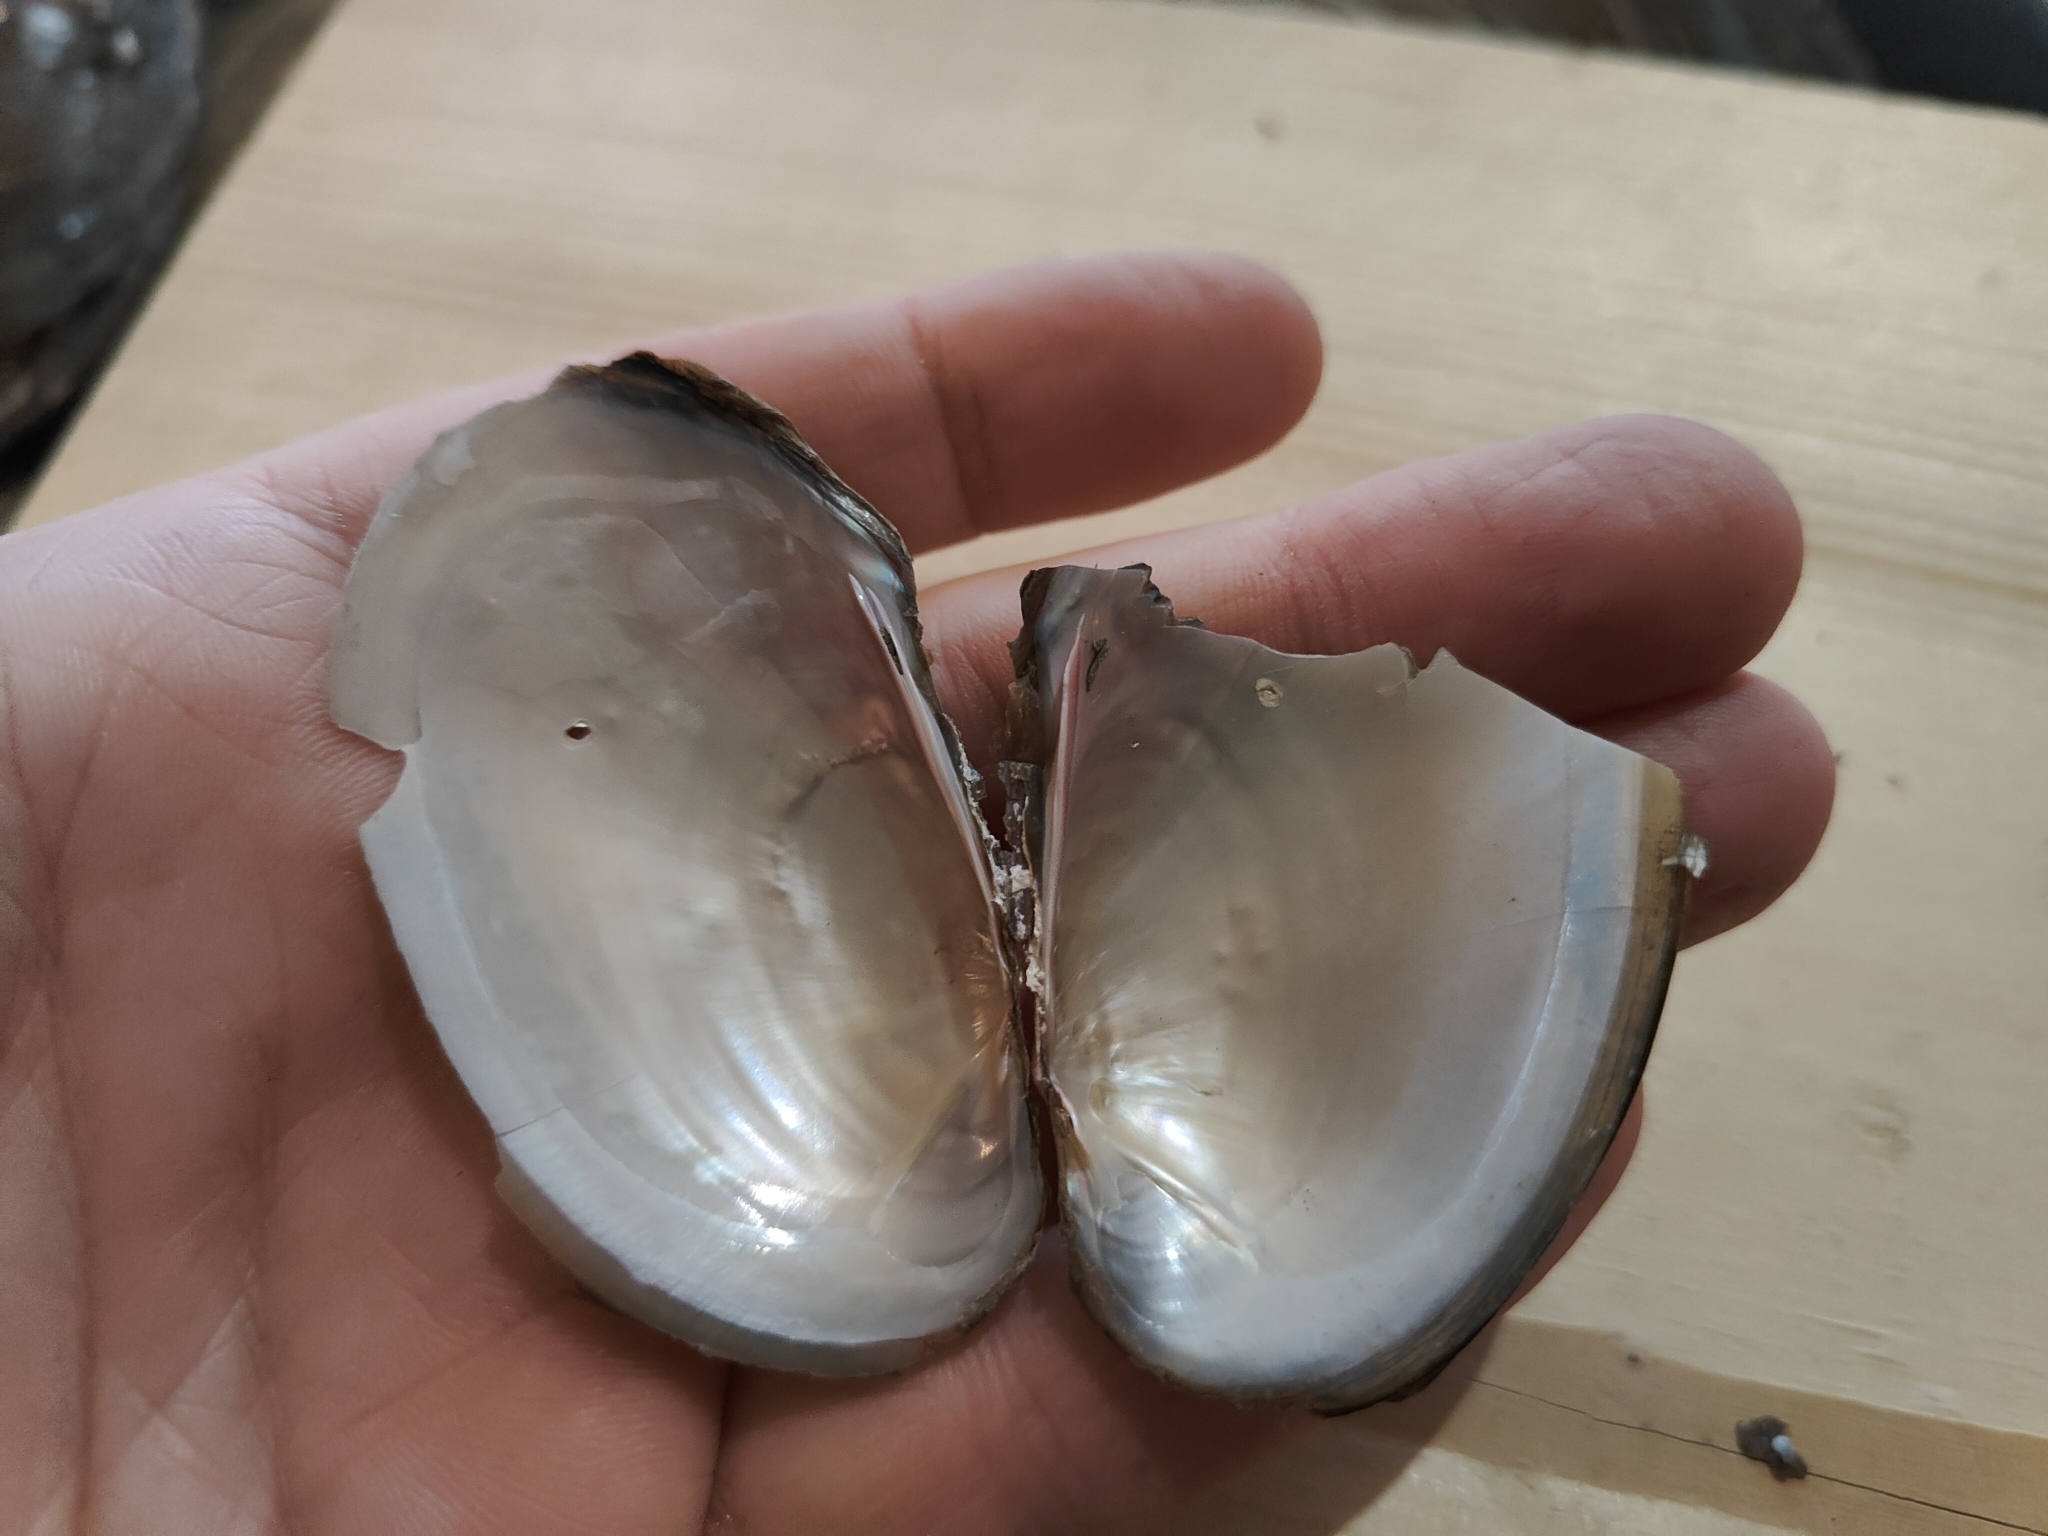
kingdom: Animalia
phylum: Mollusca
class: Bivalvia
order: Unionida
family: Unionidae
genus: Potamilus
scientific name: Potamilus fragilis
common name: Fragile papershell
